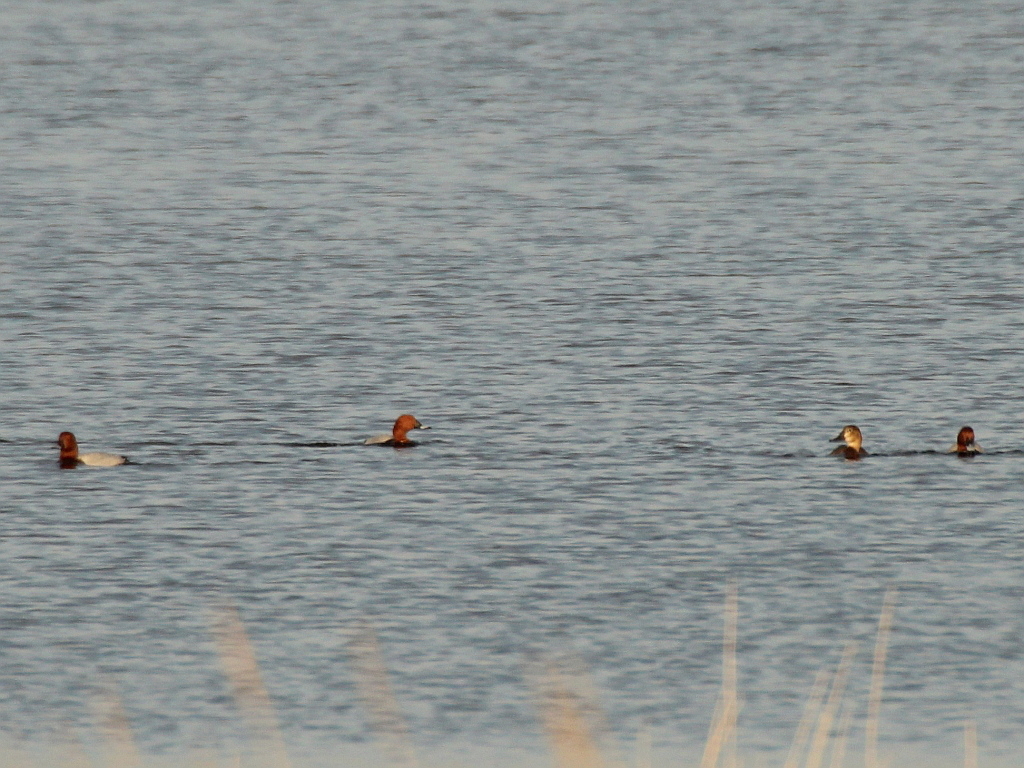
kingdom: Animalia
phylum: Chordata
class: Aves
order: Anseriformes
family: Anatidae
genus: Aythya
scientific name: Aythya ferina
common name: Common pochard
